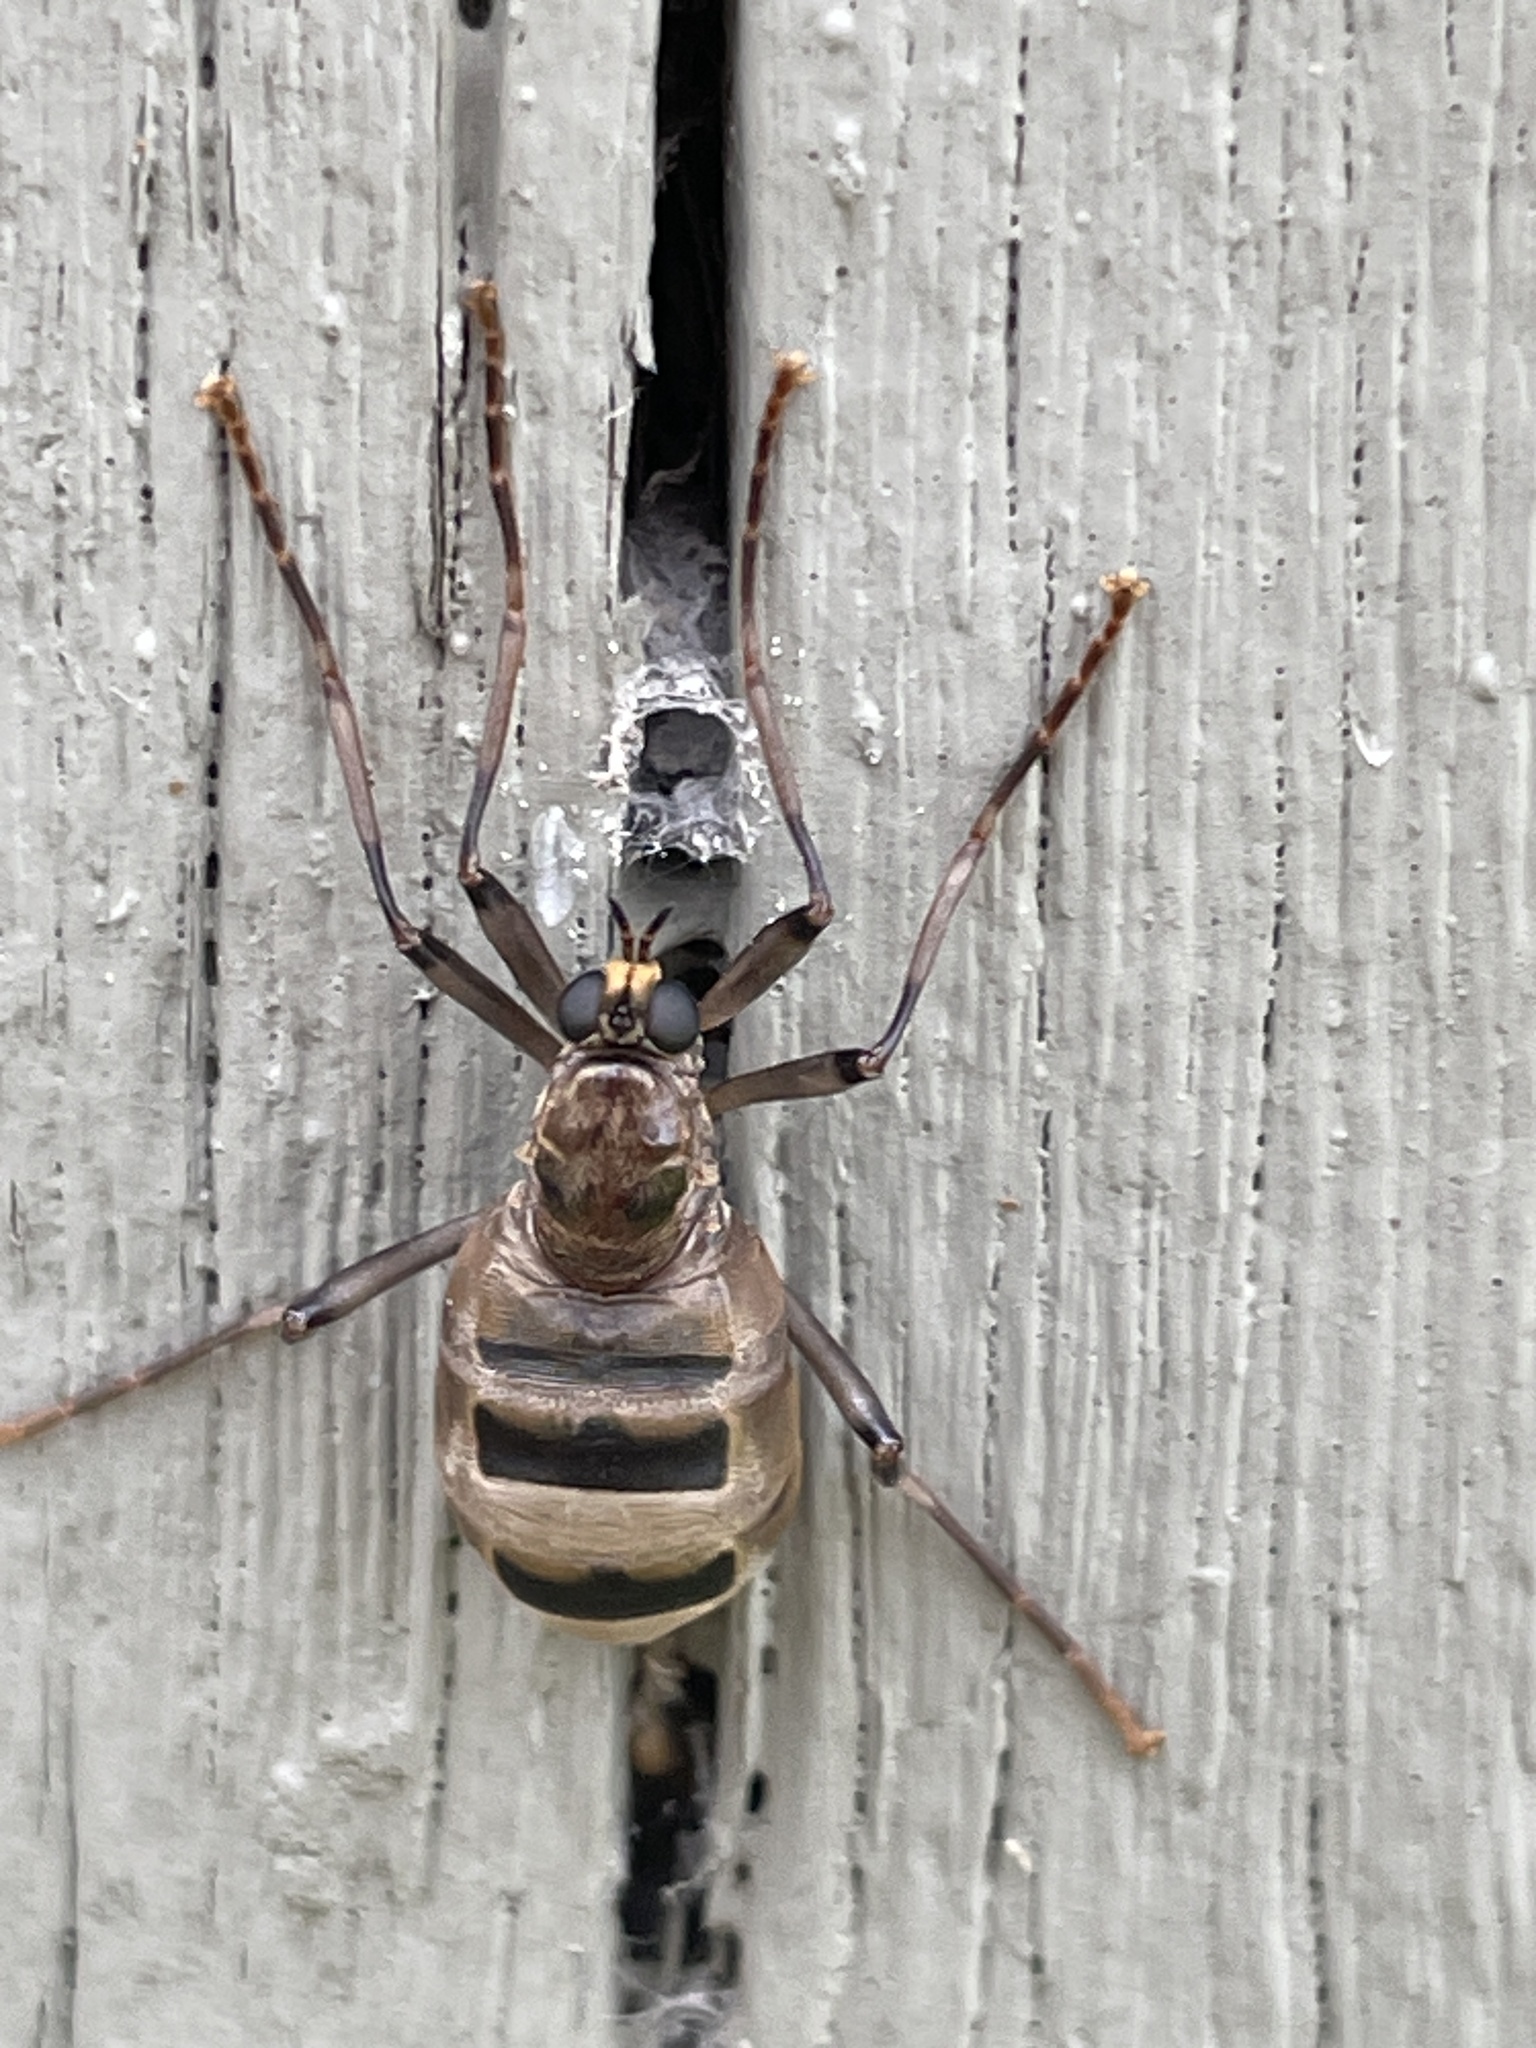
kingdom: Animalia
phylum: Arthropoda
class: Insecta
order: Diptera
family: Stratiomyidae
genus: Boreoides
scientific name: Boreoides subulatus
